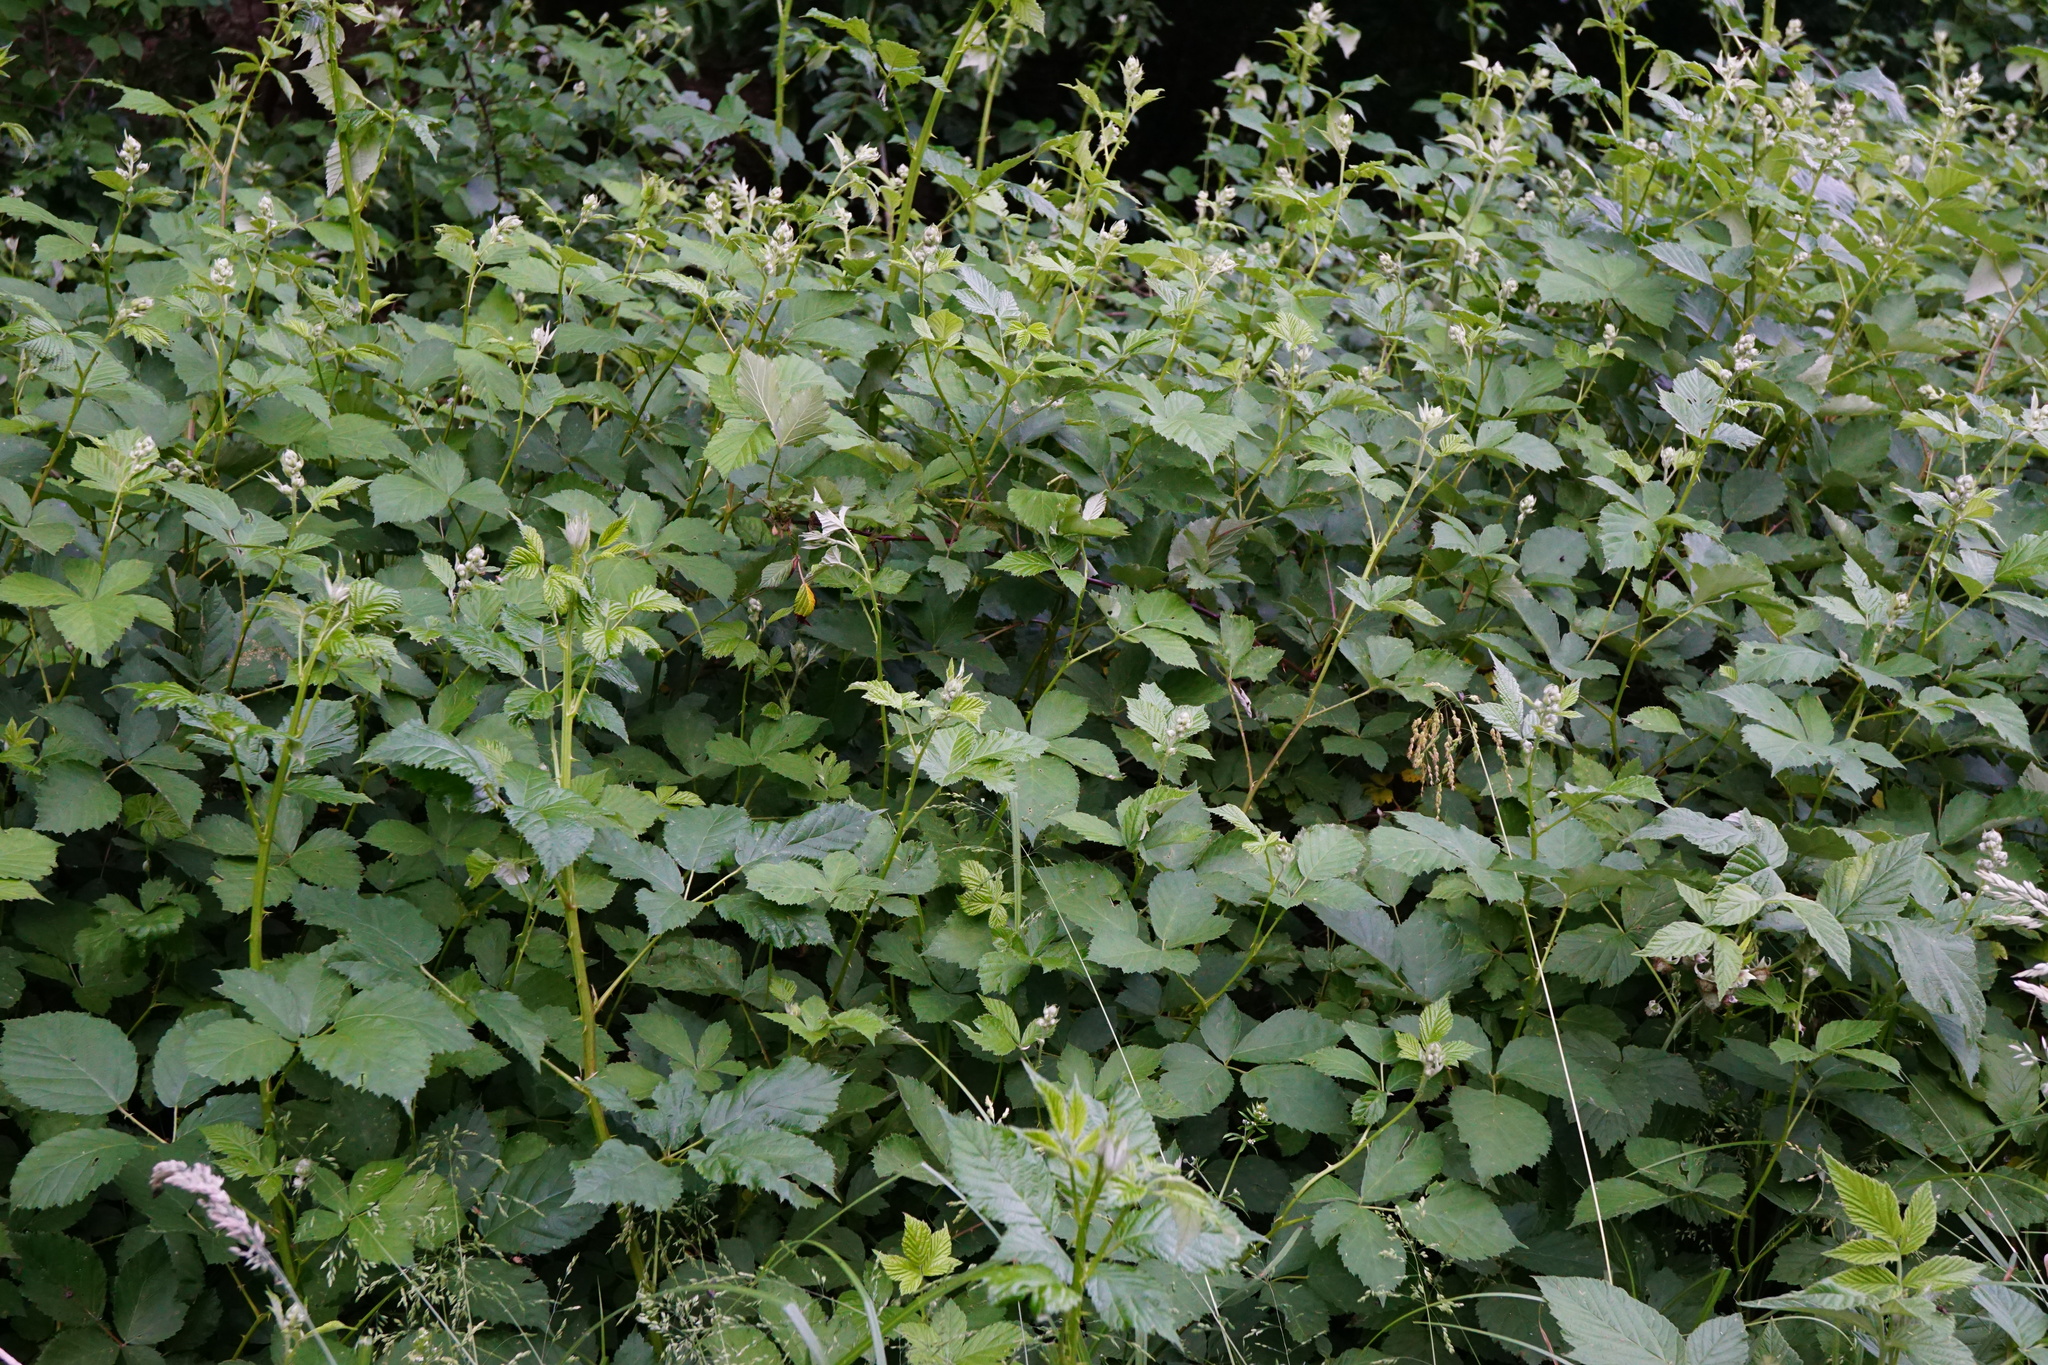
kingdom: Plantae
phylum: Tracheophyta
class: Magnoliopsida
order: Rosales
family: Rosaceae
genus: Rubus
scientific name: Rubus
